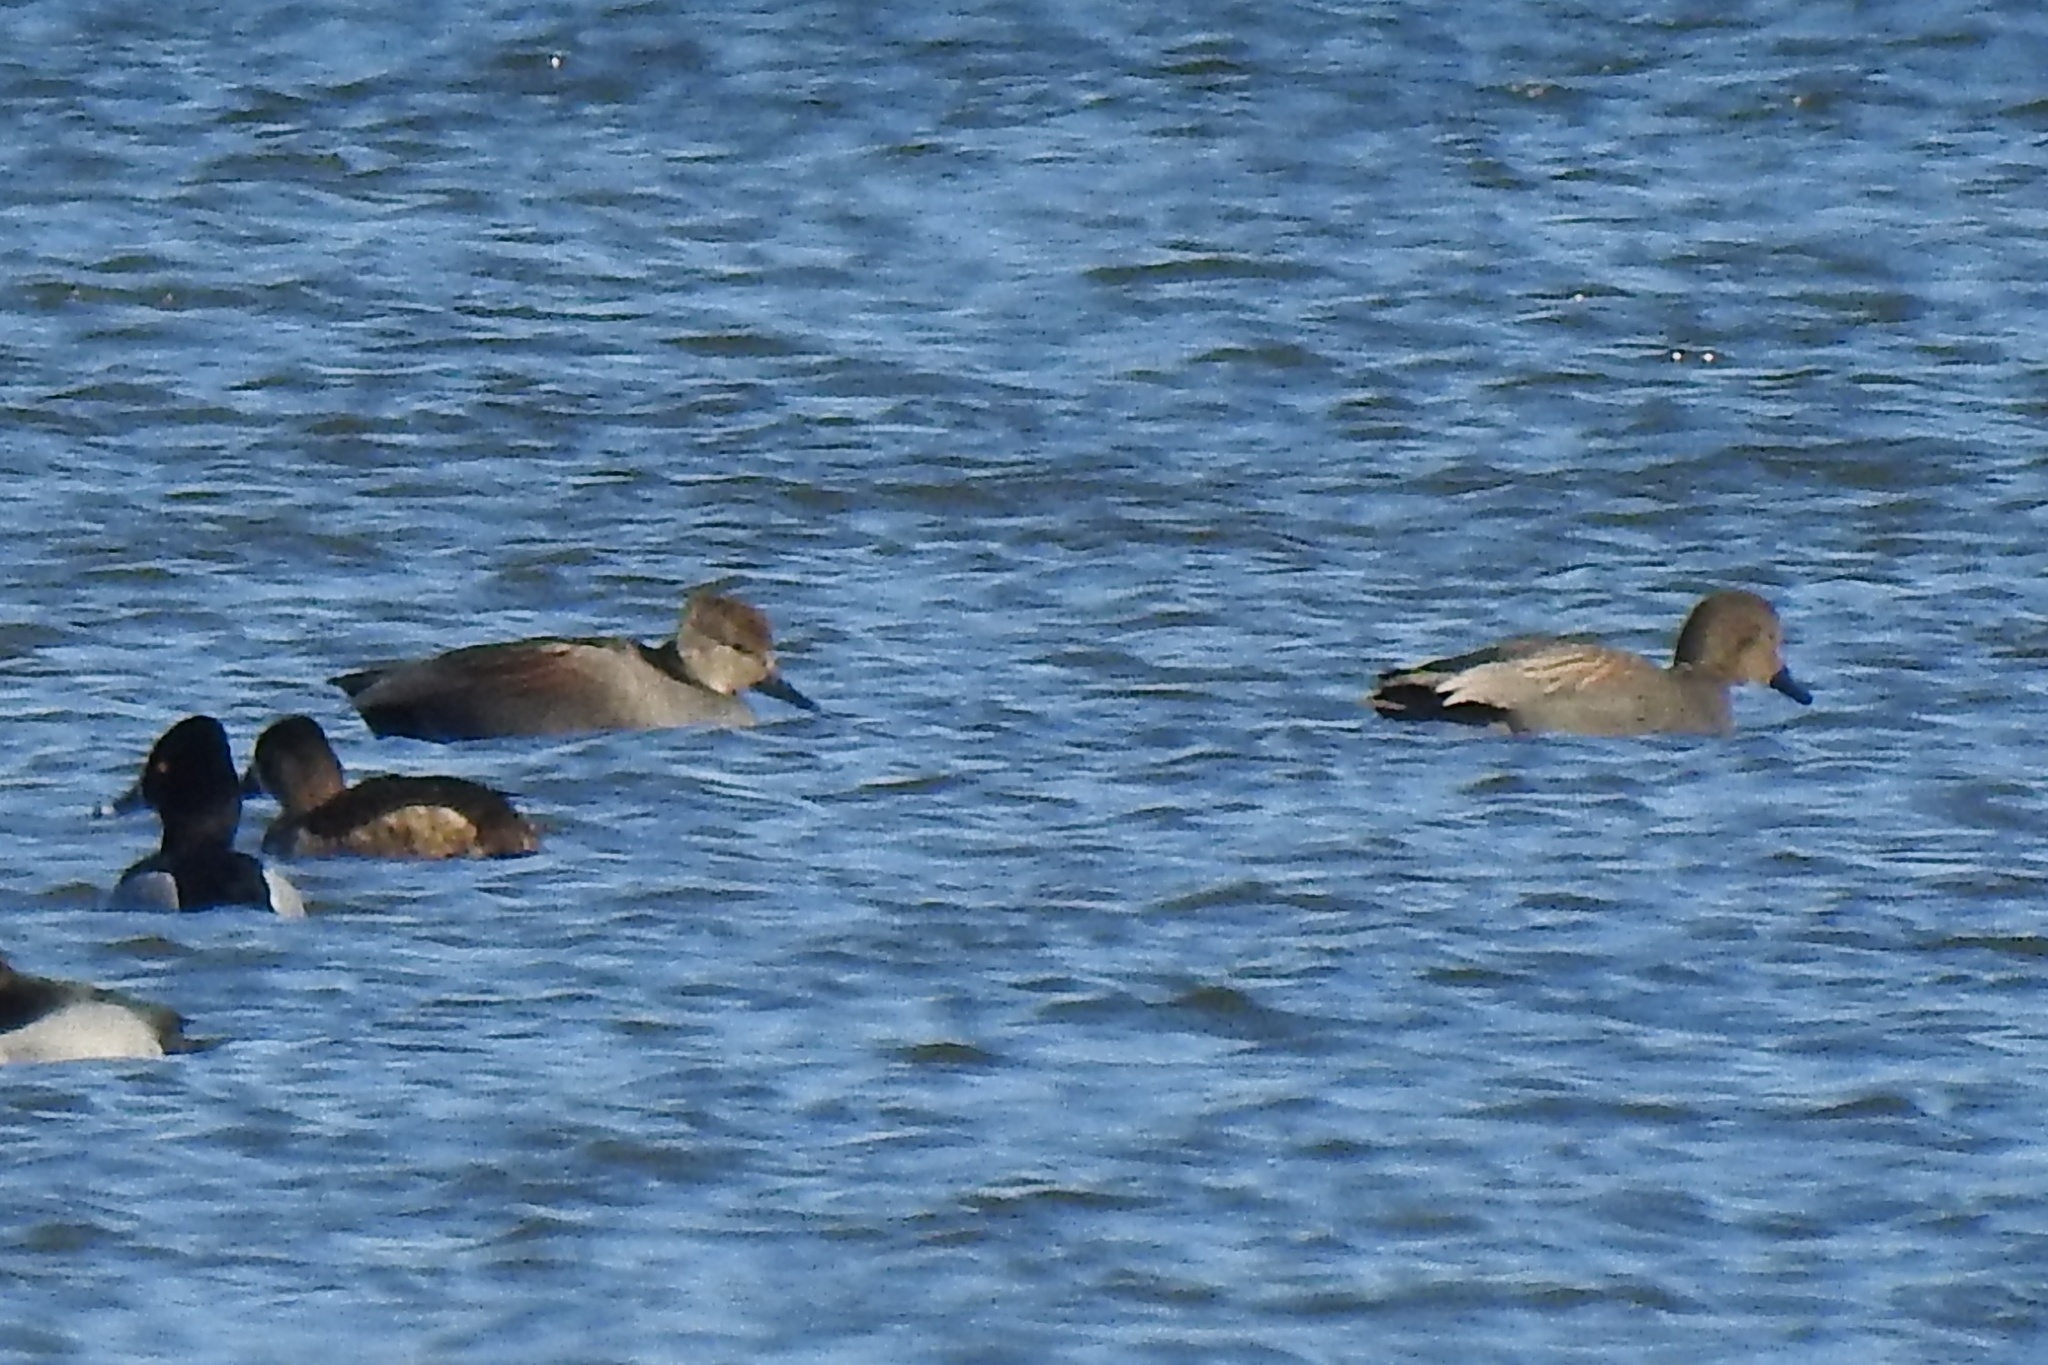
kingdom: Animalia
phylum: Chordata
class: Aves
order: Anseriformes
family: Anatidae
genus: Mareca
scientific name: Mareca strepera
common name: Gadwall
